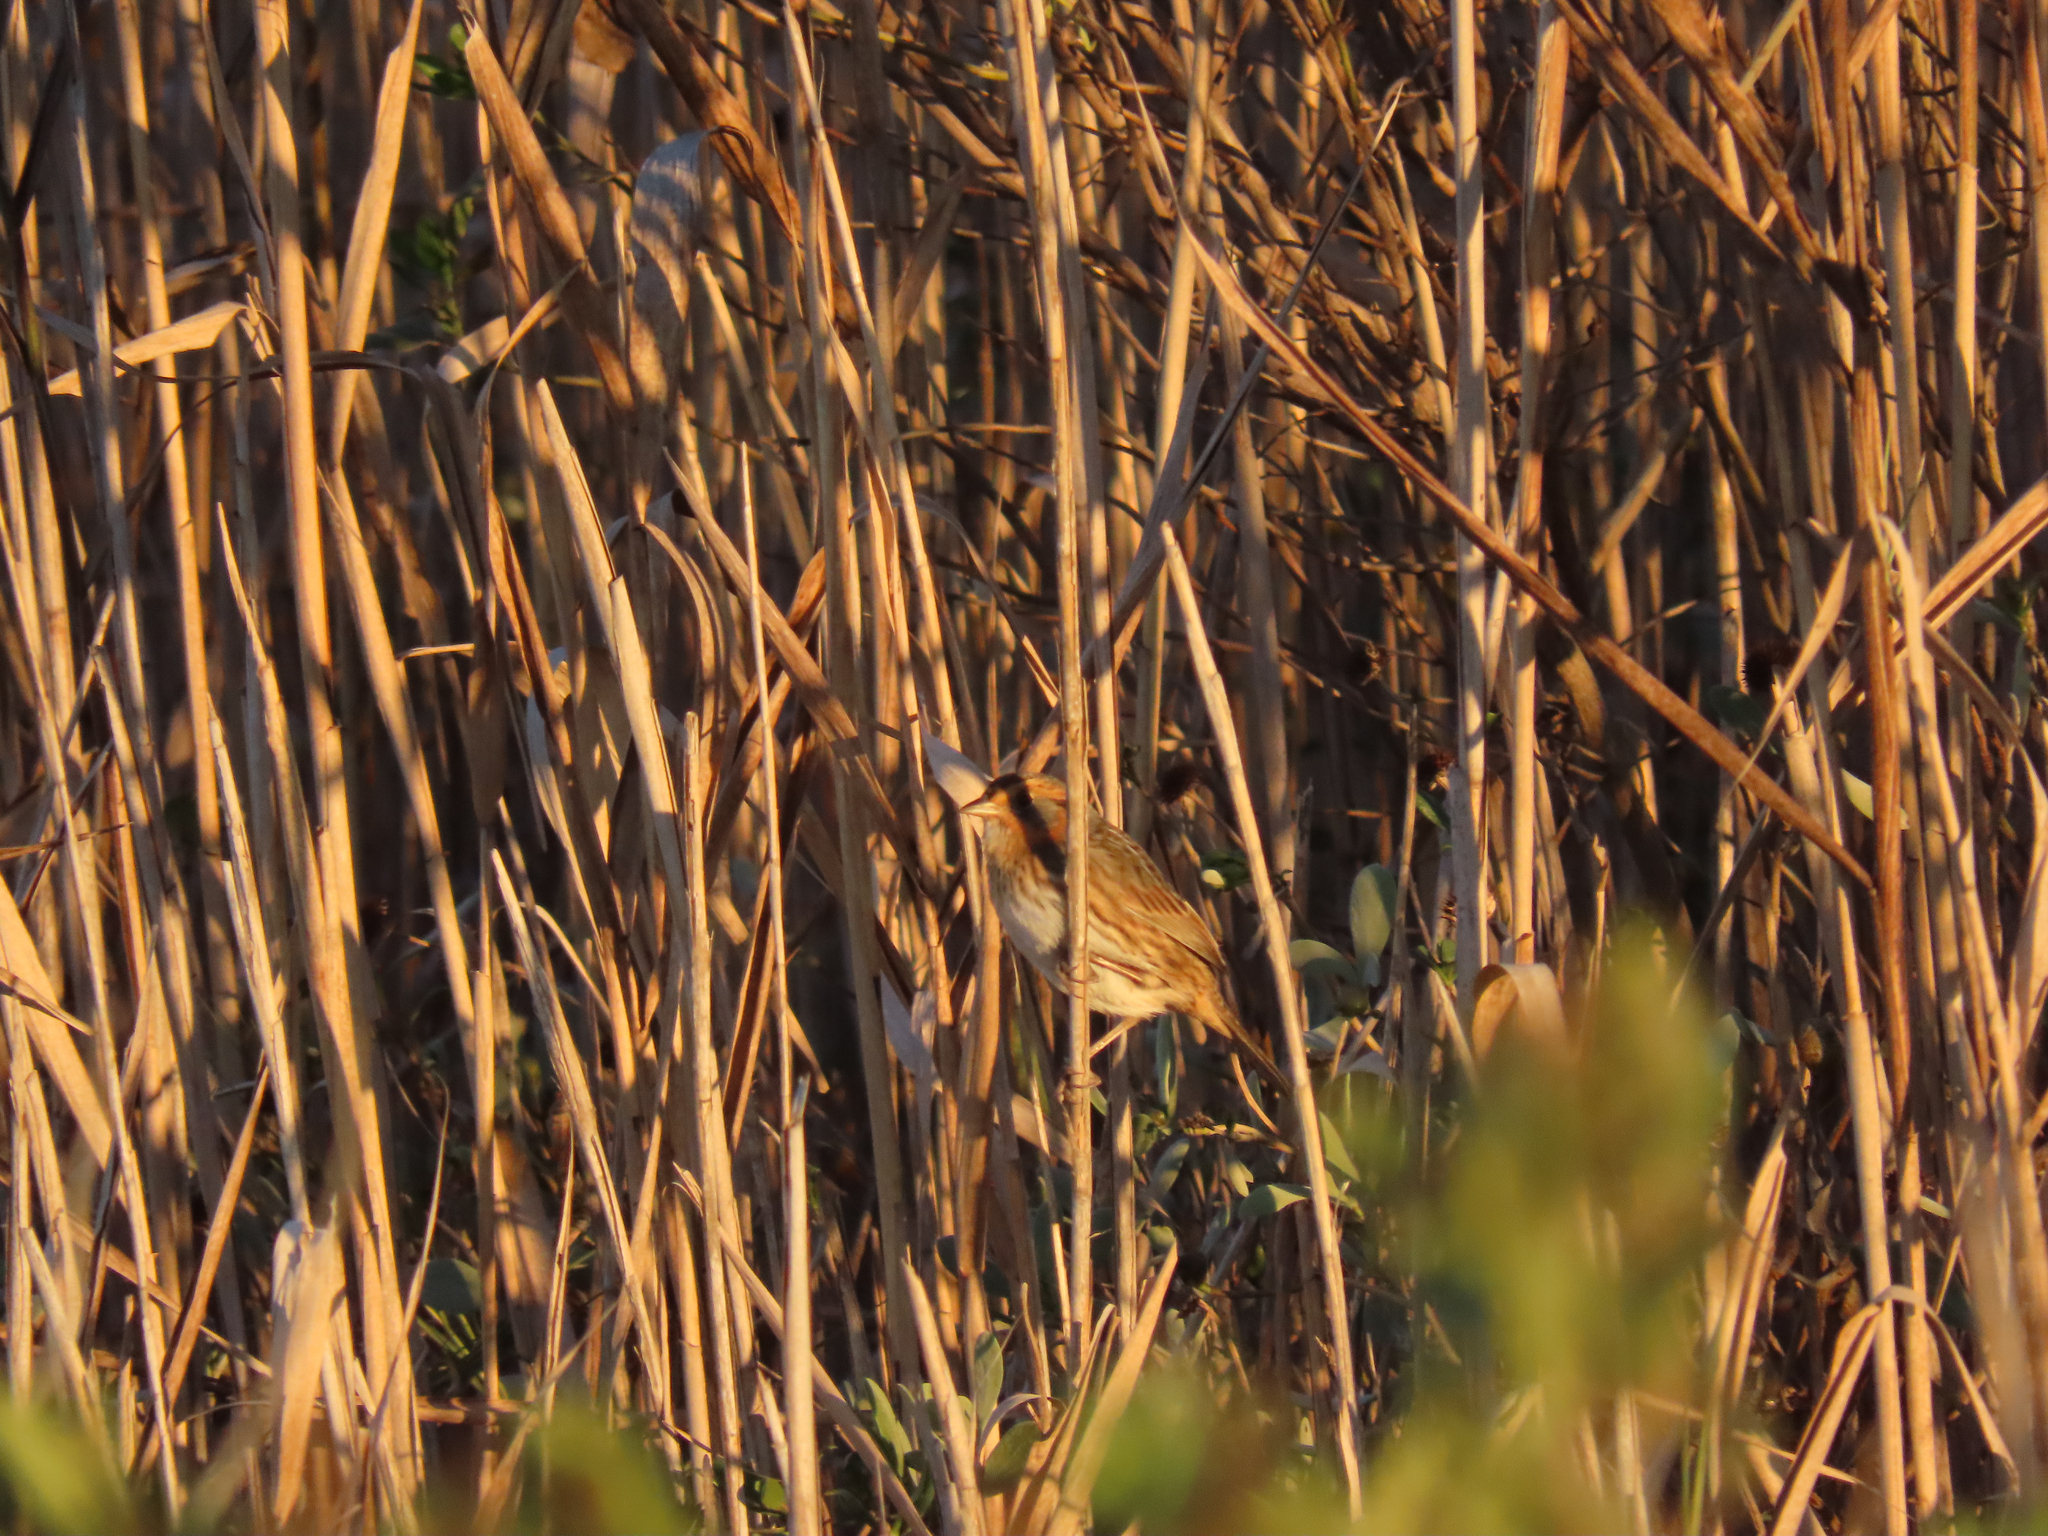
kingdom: Animalia
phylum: Chordata
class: Aves
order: Passeriformes
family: Passerellidae
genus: Ammospiza
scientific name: Ammospiza caudacuta
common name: Saltmarsh sparrow
